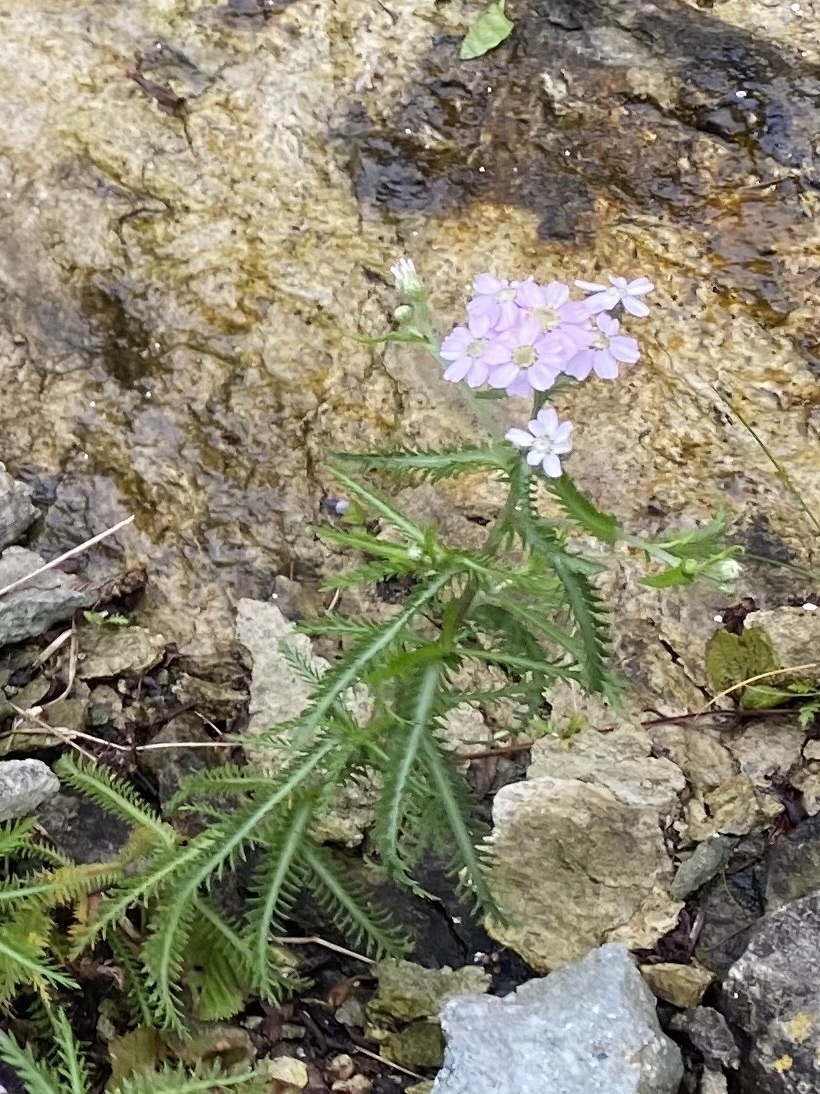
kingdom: Plantae
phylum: Tracheophyta
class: Magnoliopsida
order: Asterales
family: Asteraceae
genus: Achillea
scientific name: Achillea alpina
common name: Siberian yarrow
